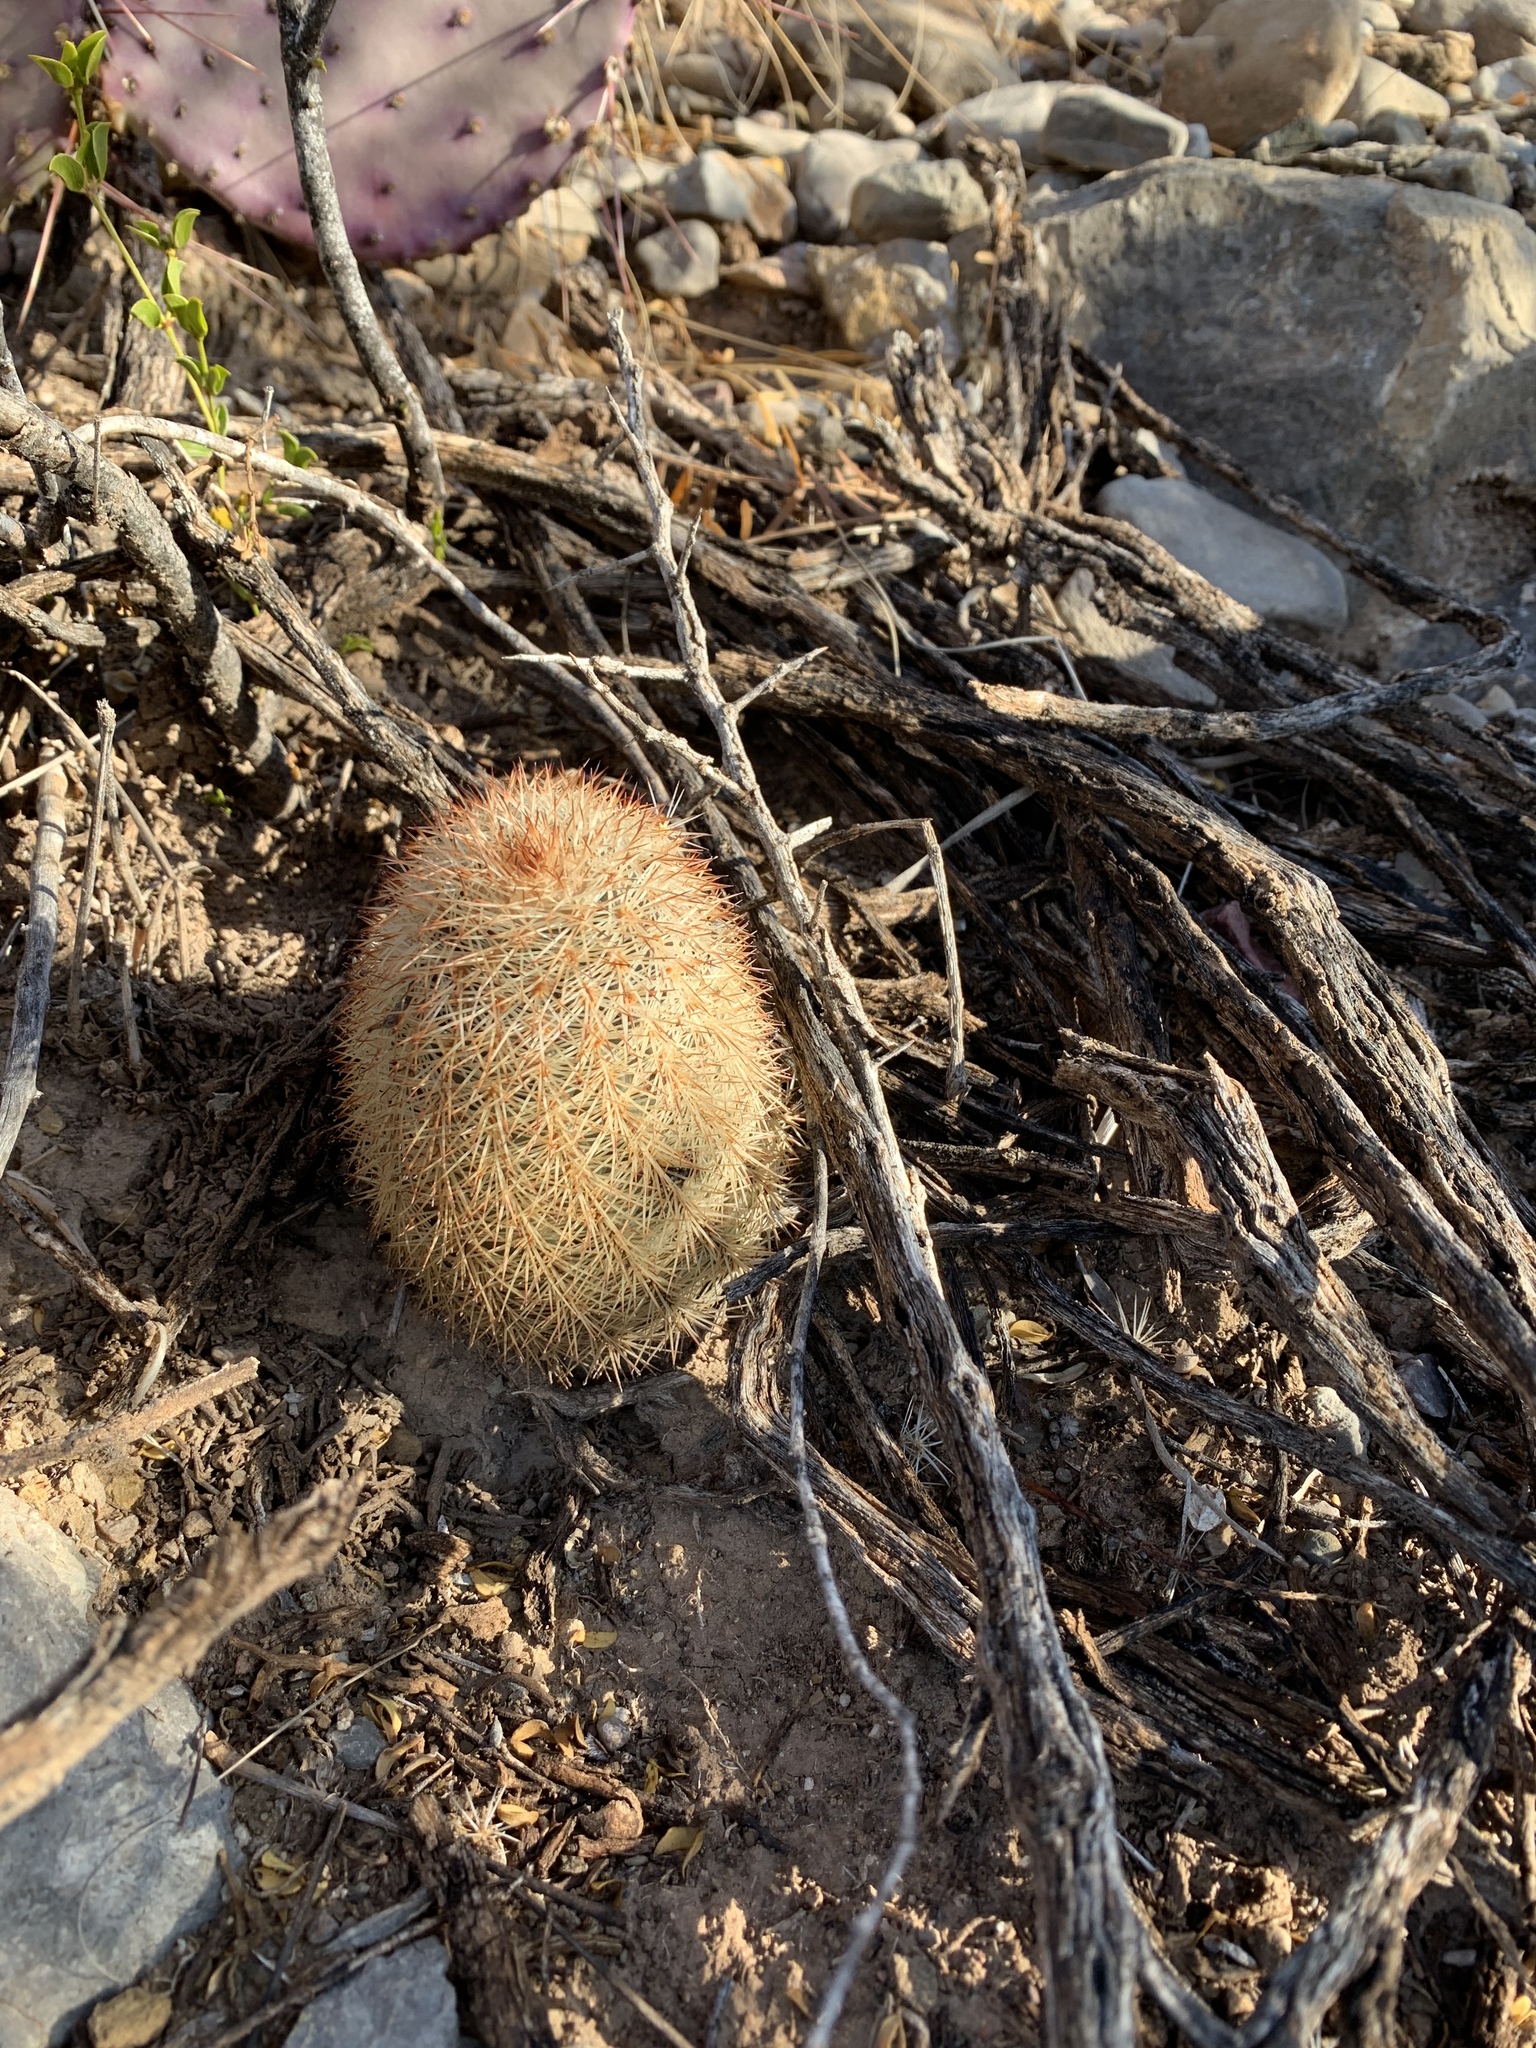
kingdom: Plantae
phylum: Tracheophyta
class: Magnoliopsida
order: Caryophyllales
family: Cactaceae
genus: Echinocereus
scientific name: Echinocereus dasyacanthus
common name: Spiny hedgehog cactus
